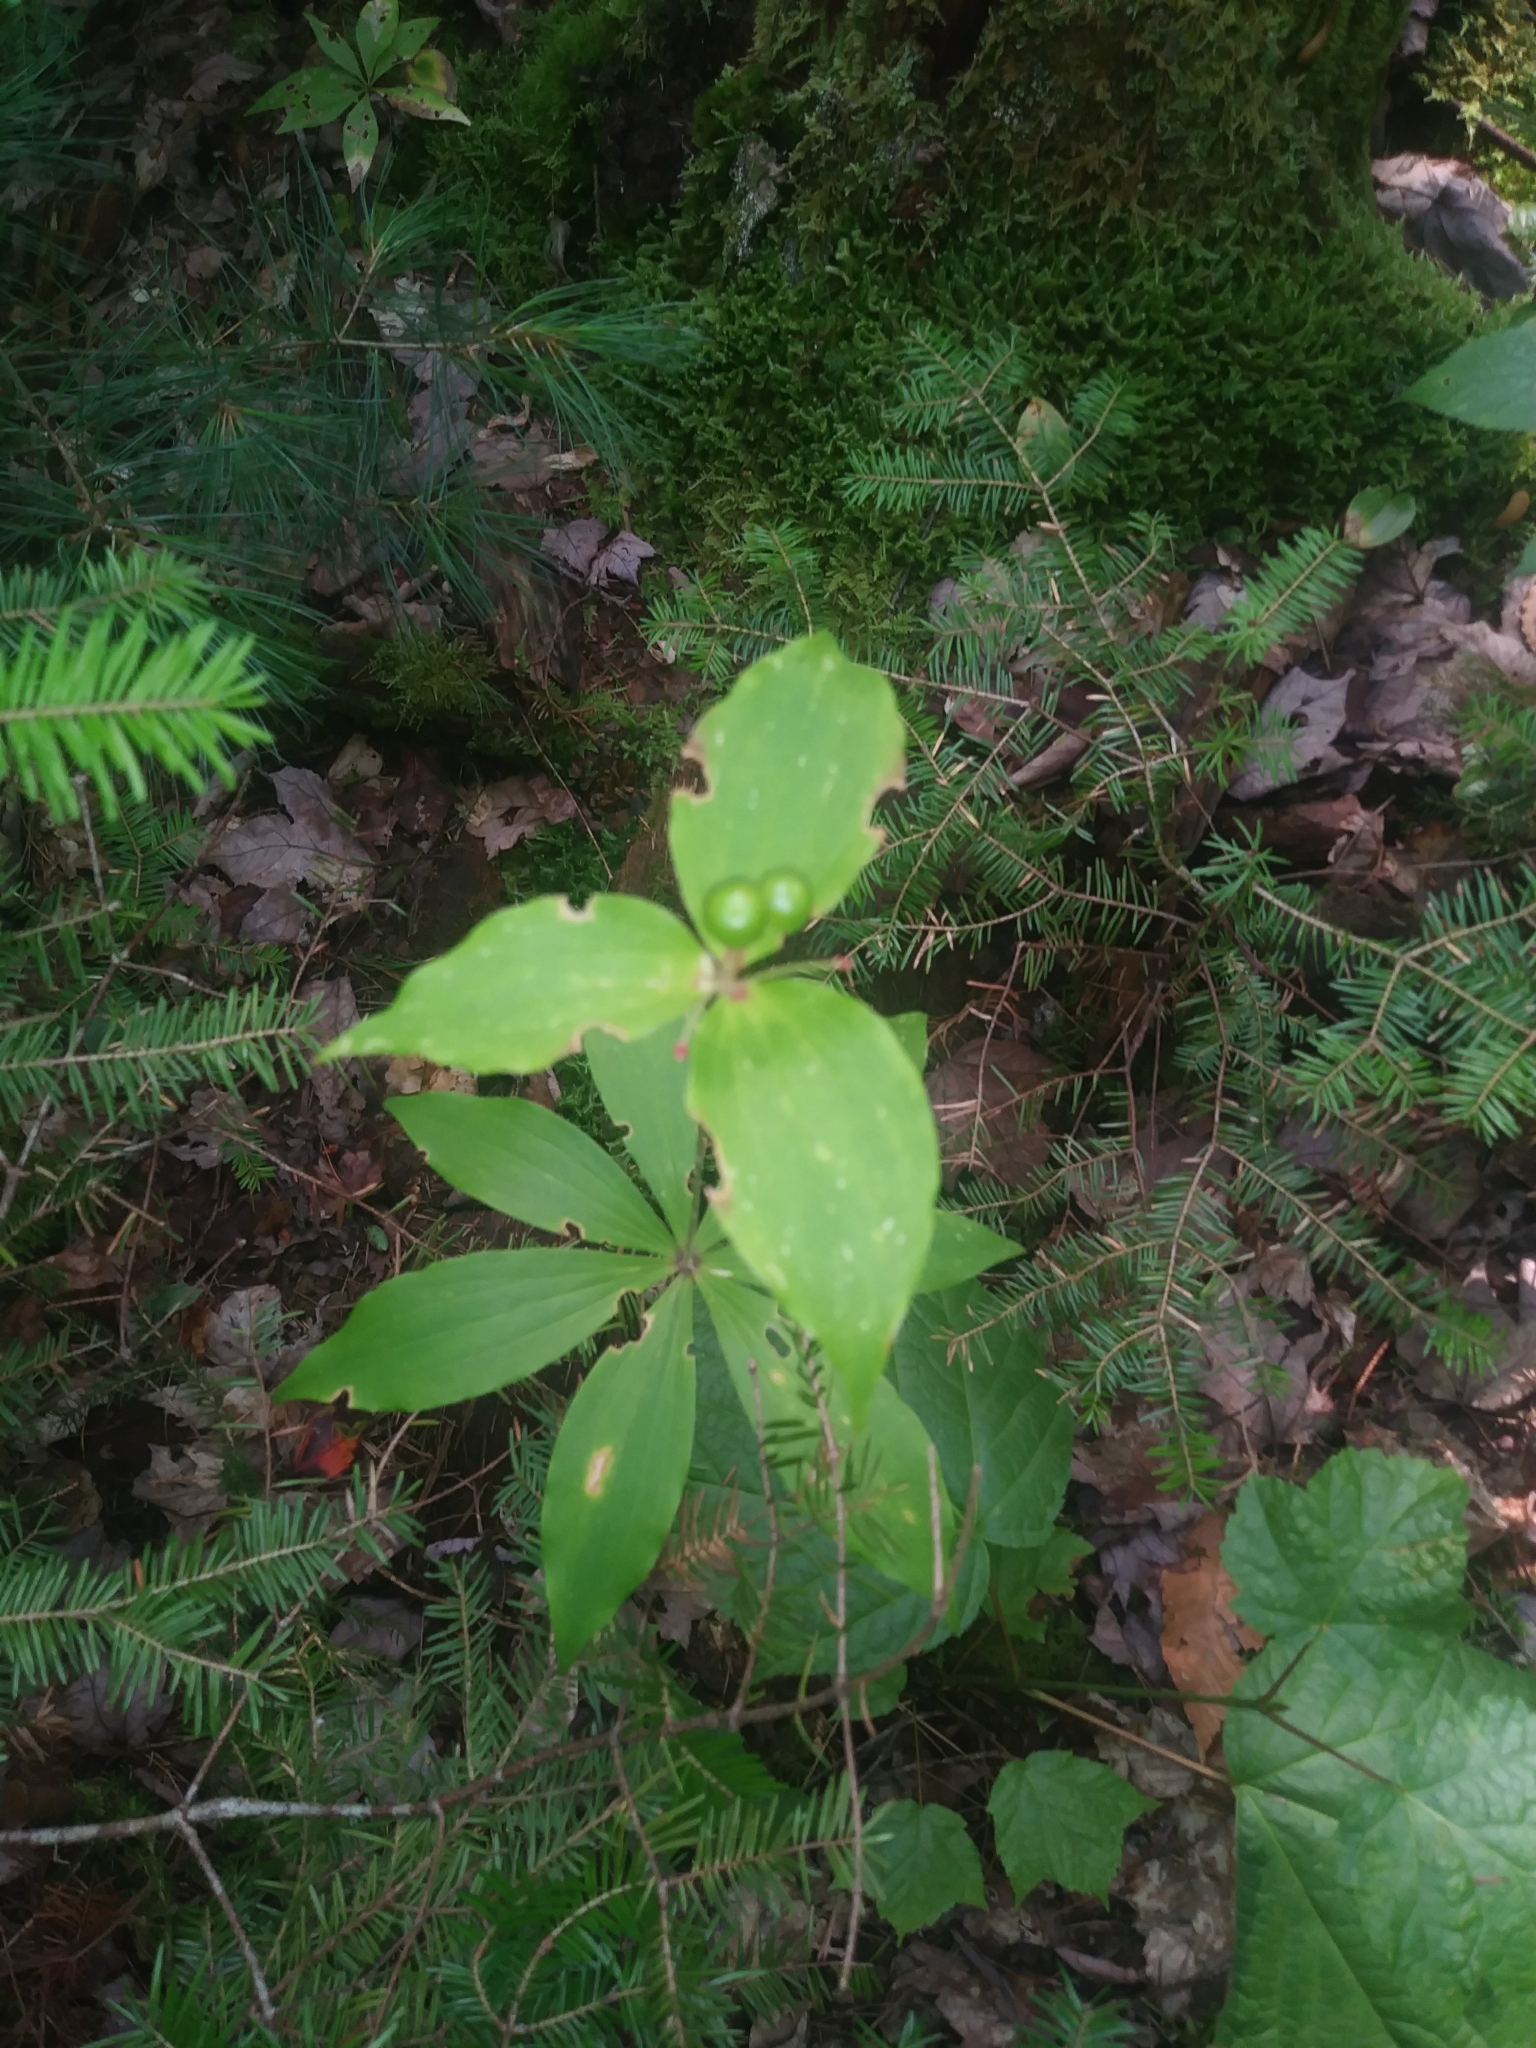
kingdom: Plantae
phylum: Tracheophyta
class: Liliopsida
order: Liliales
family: Liliaceae
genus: Medeola
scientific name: Medeola virginiana
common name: Indian cucumber-root
